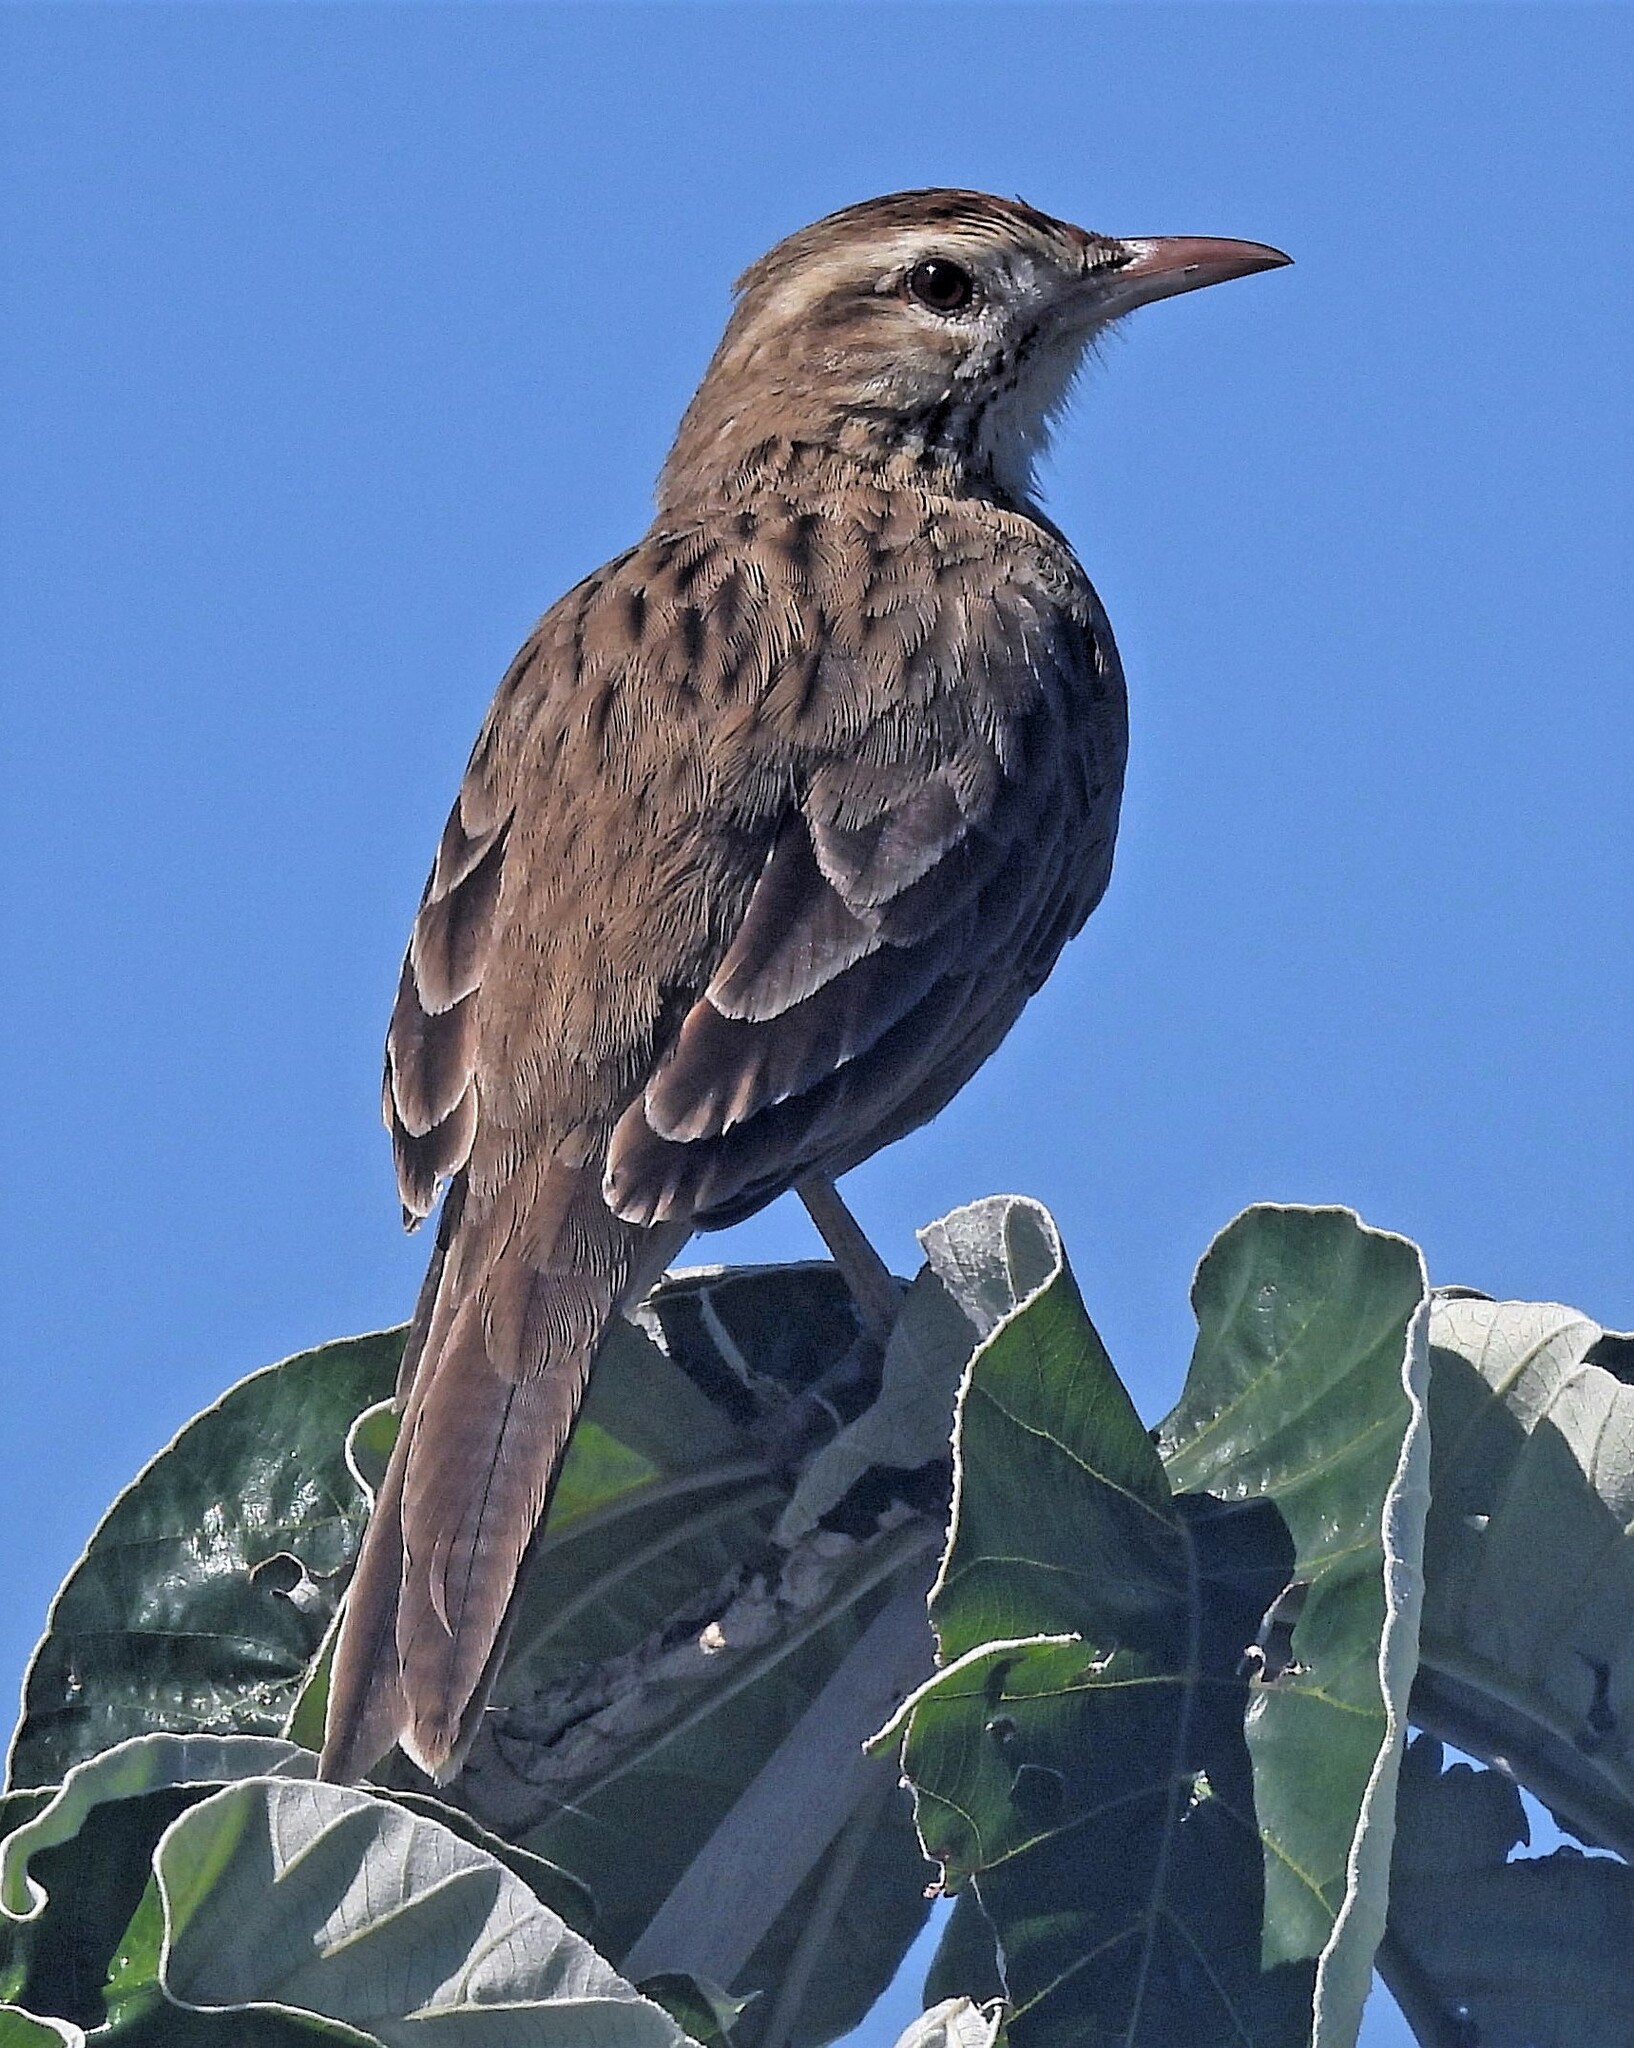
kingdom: Animalia
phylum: Chordata
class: Aves
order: Passeriformes
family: Furnariidae
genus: Anumbius
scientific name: Anumbius annumbi
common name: Firewood-gatherer
